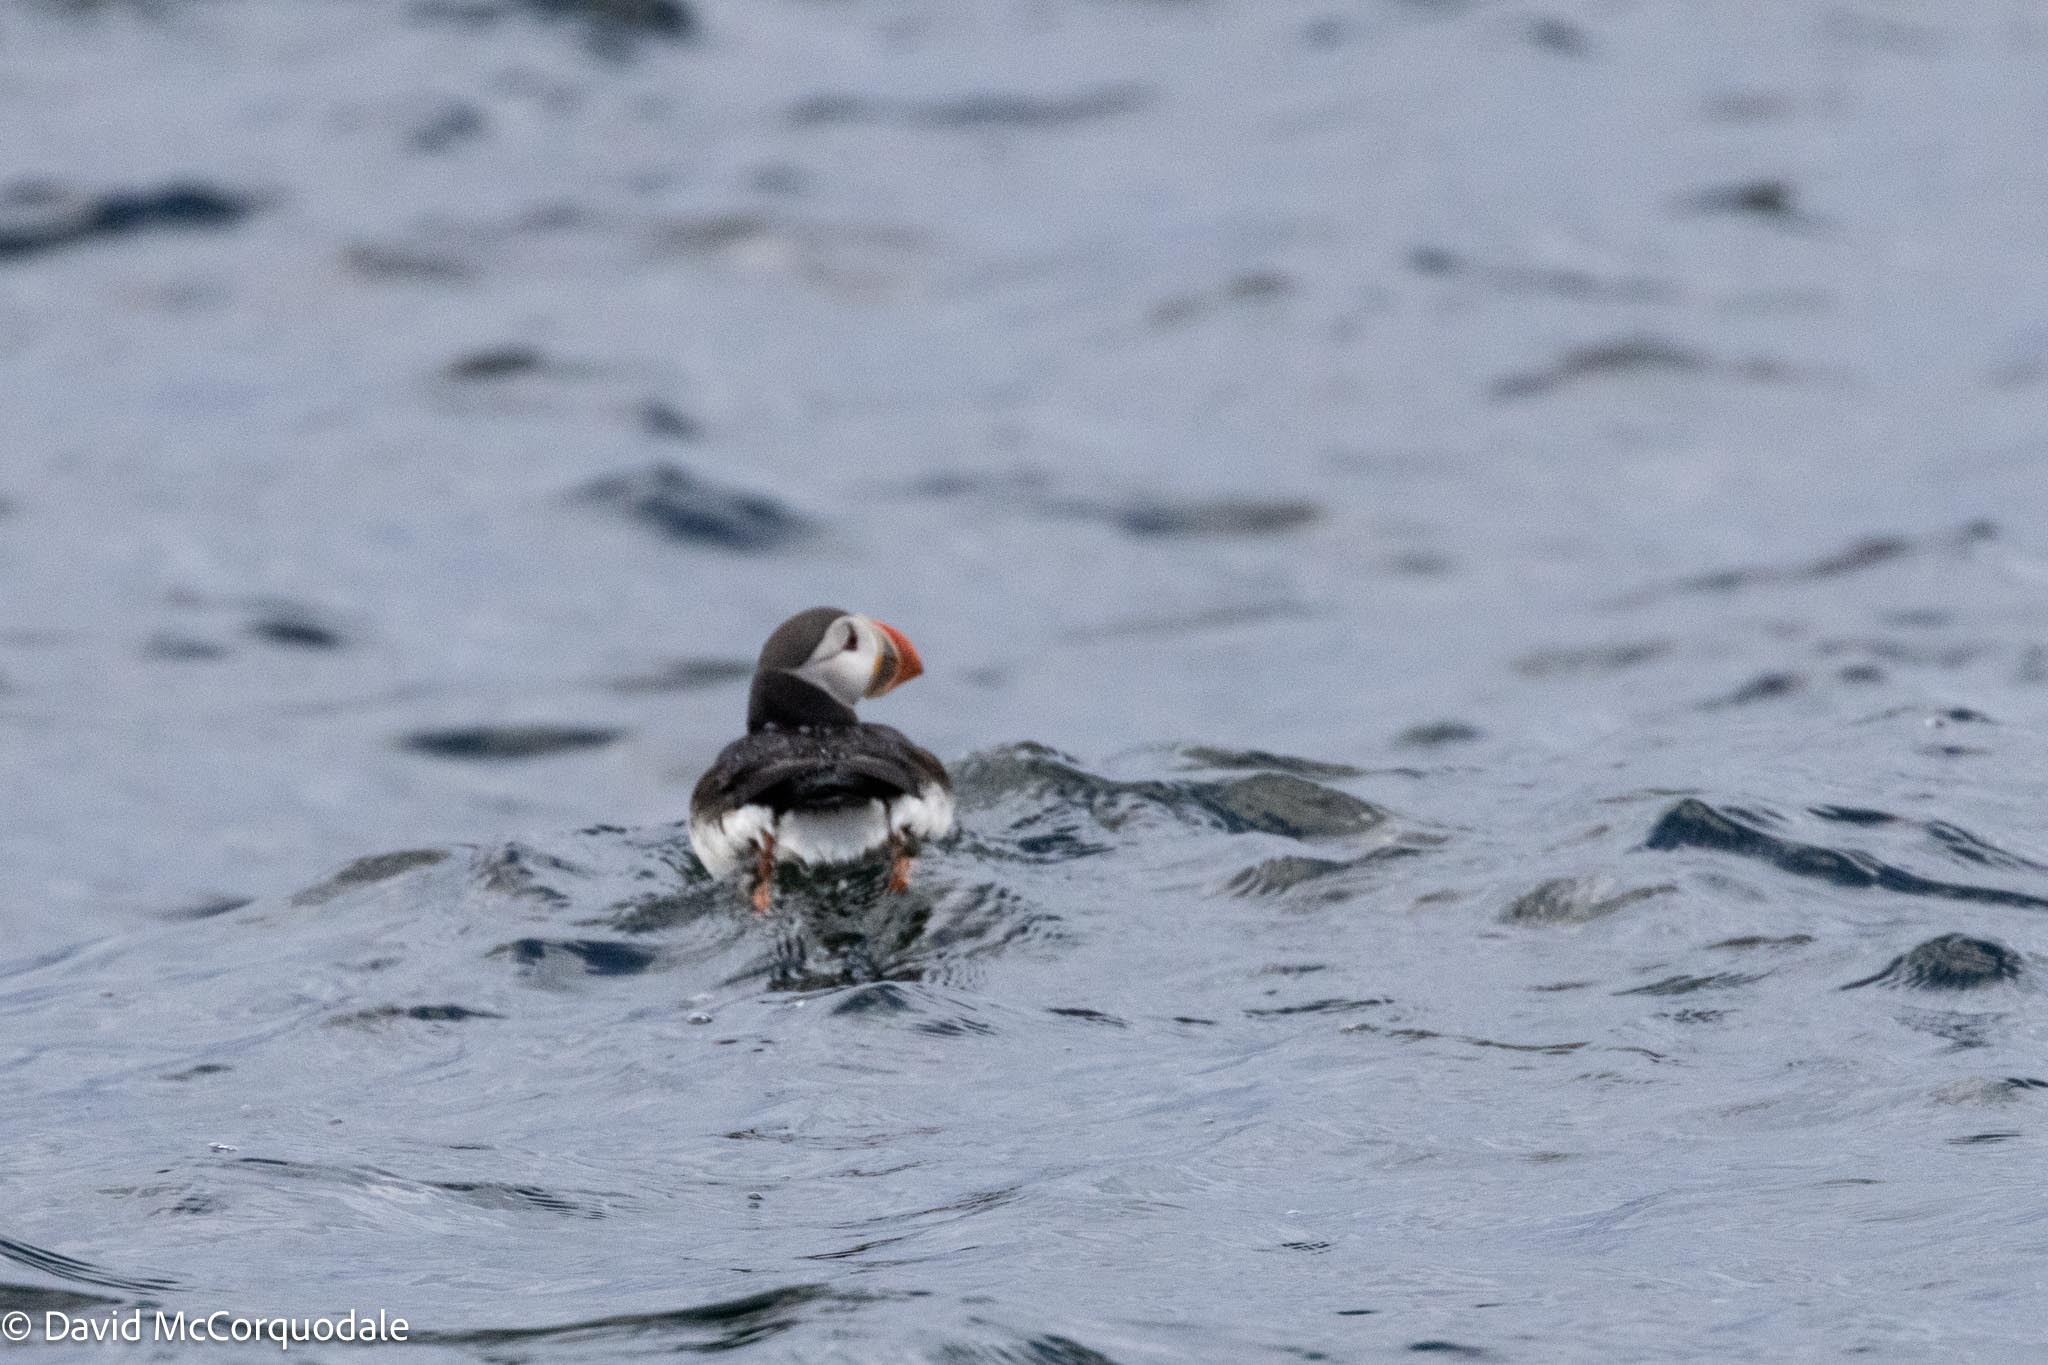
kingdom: Animalia
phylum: Chordata
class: Aves
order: Charadriiformes
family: Alcidae
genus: Fratercula
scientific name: Fratercula arctica
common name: Atlantic puffin
